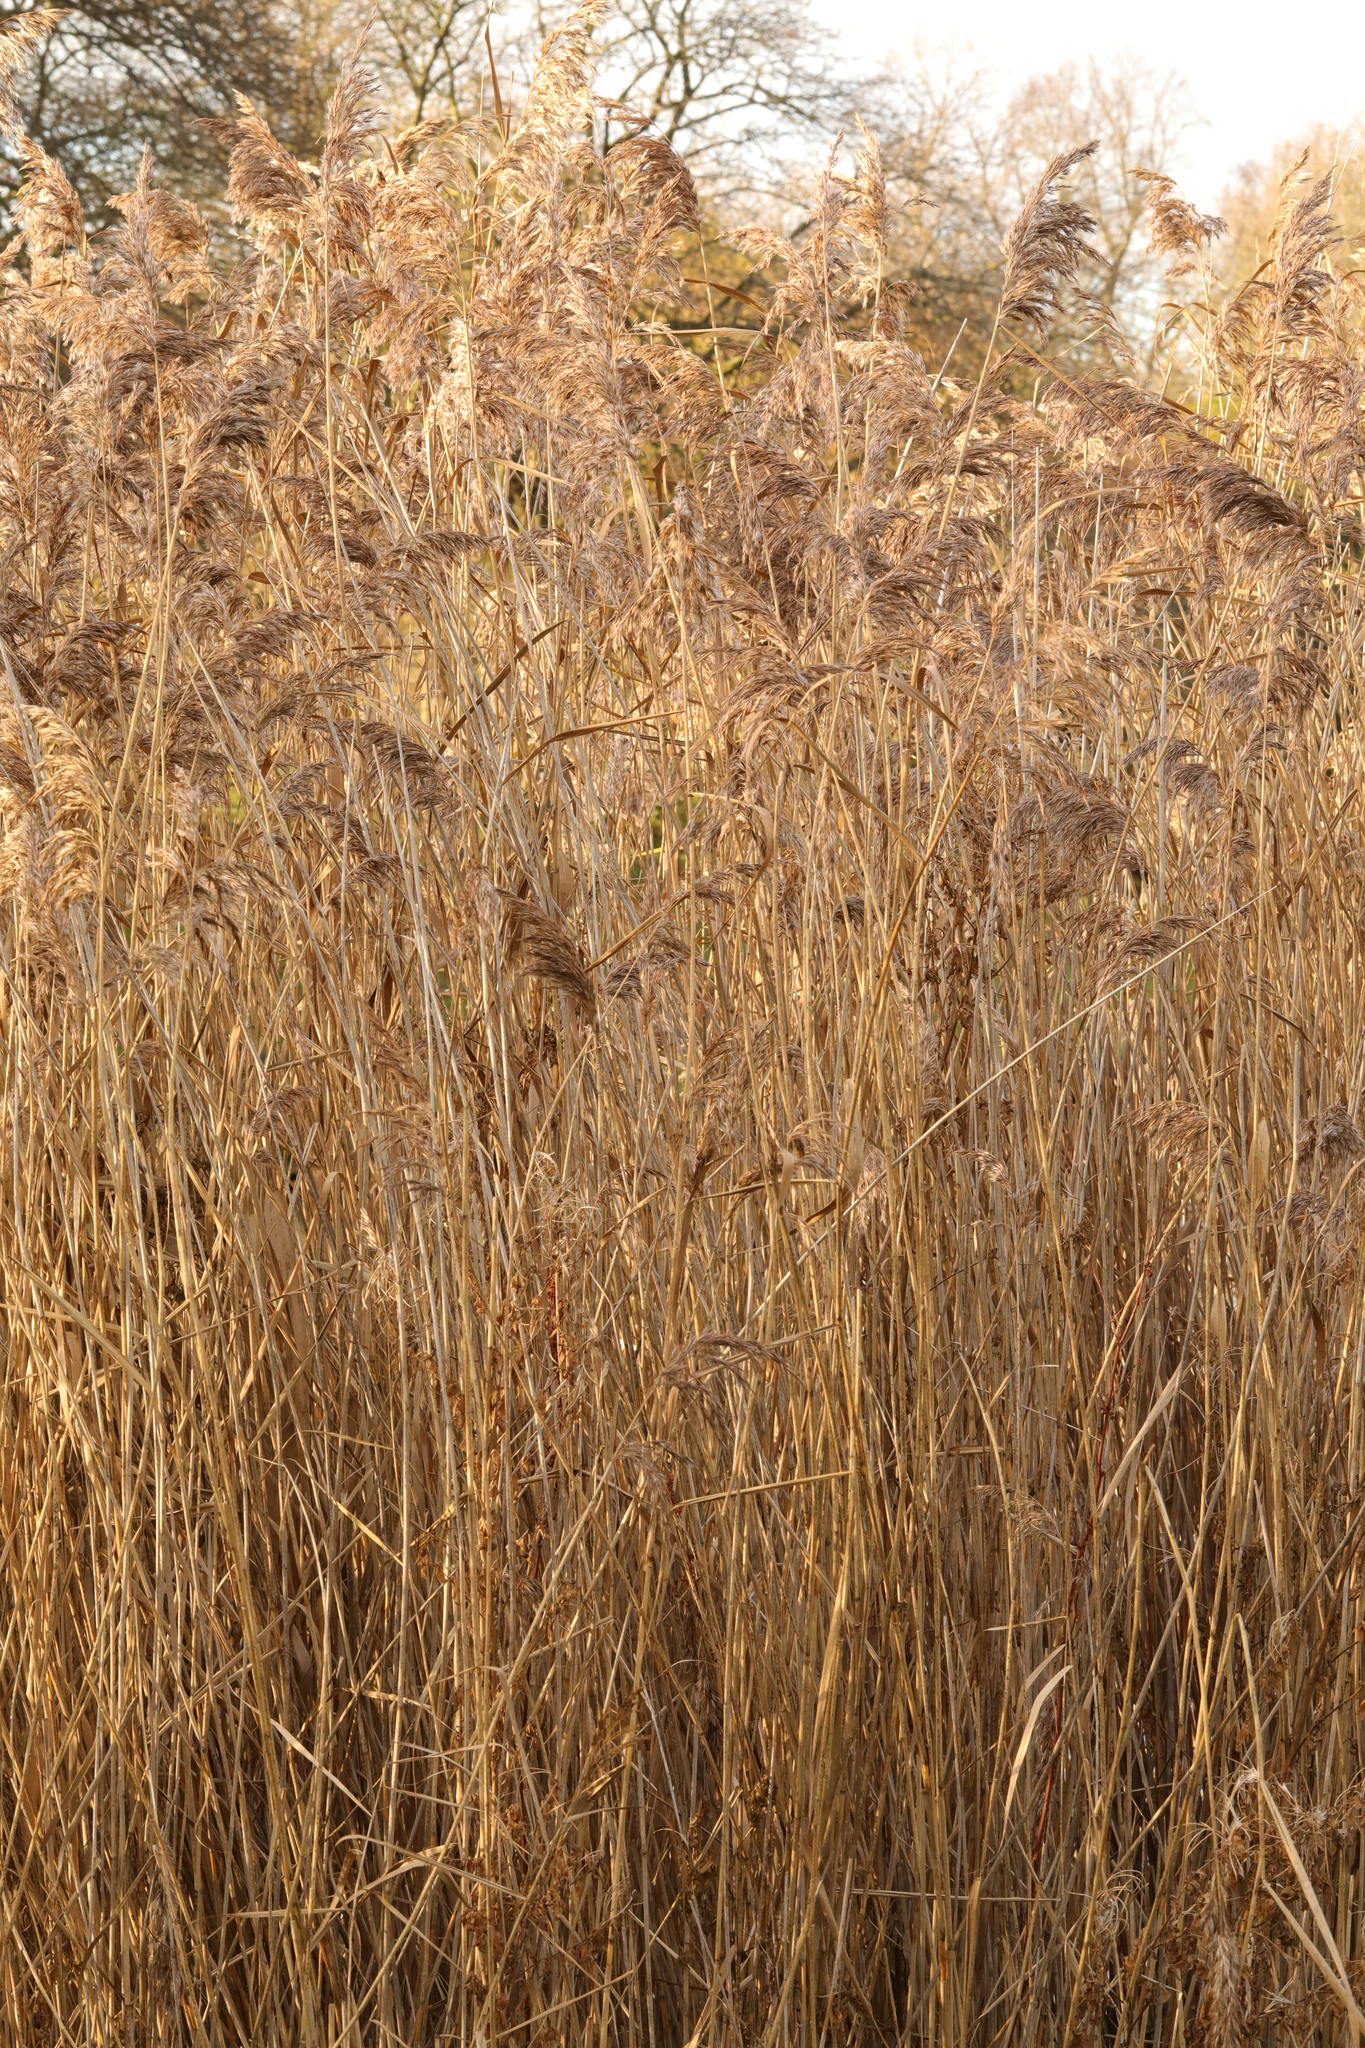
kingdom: Plantae
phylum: Tracheophyta
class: Liliopsida
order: Poales
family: Poaceae
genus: Phragmites
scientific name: Phragmites australis
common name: Common reed
